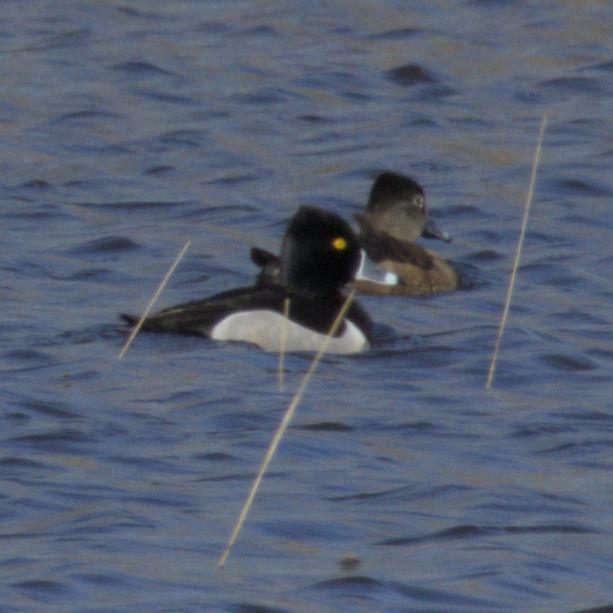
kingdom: Animalia
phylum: Chordata
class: Aves
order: Anseriformes
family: Anatidae
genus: Aythya
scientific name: Aythya collaris
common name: Ring-necked duck
